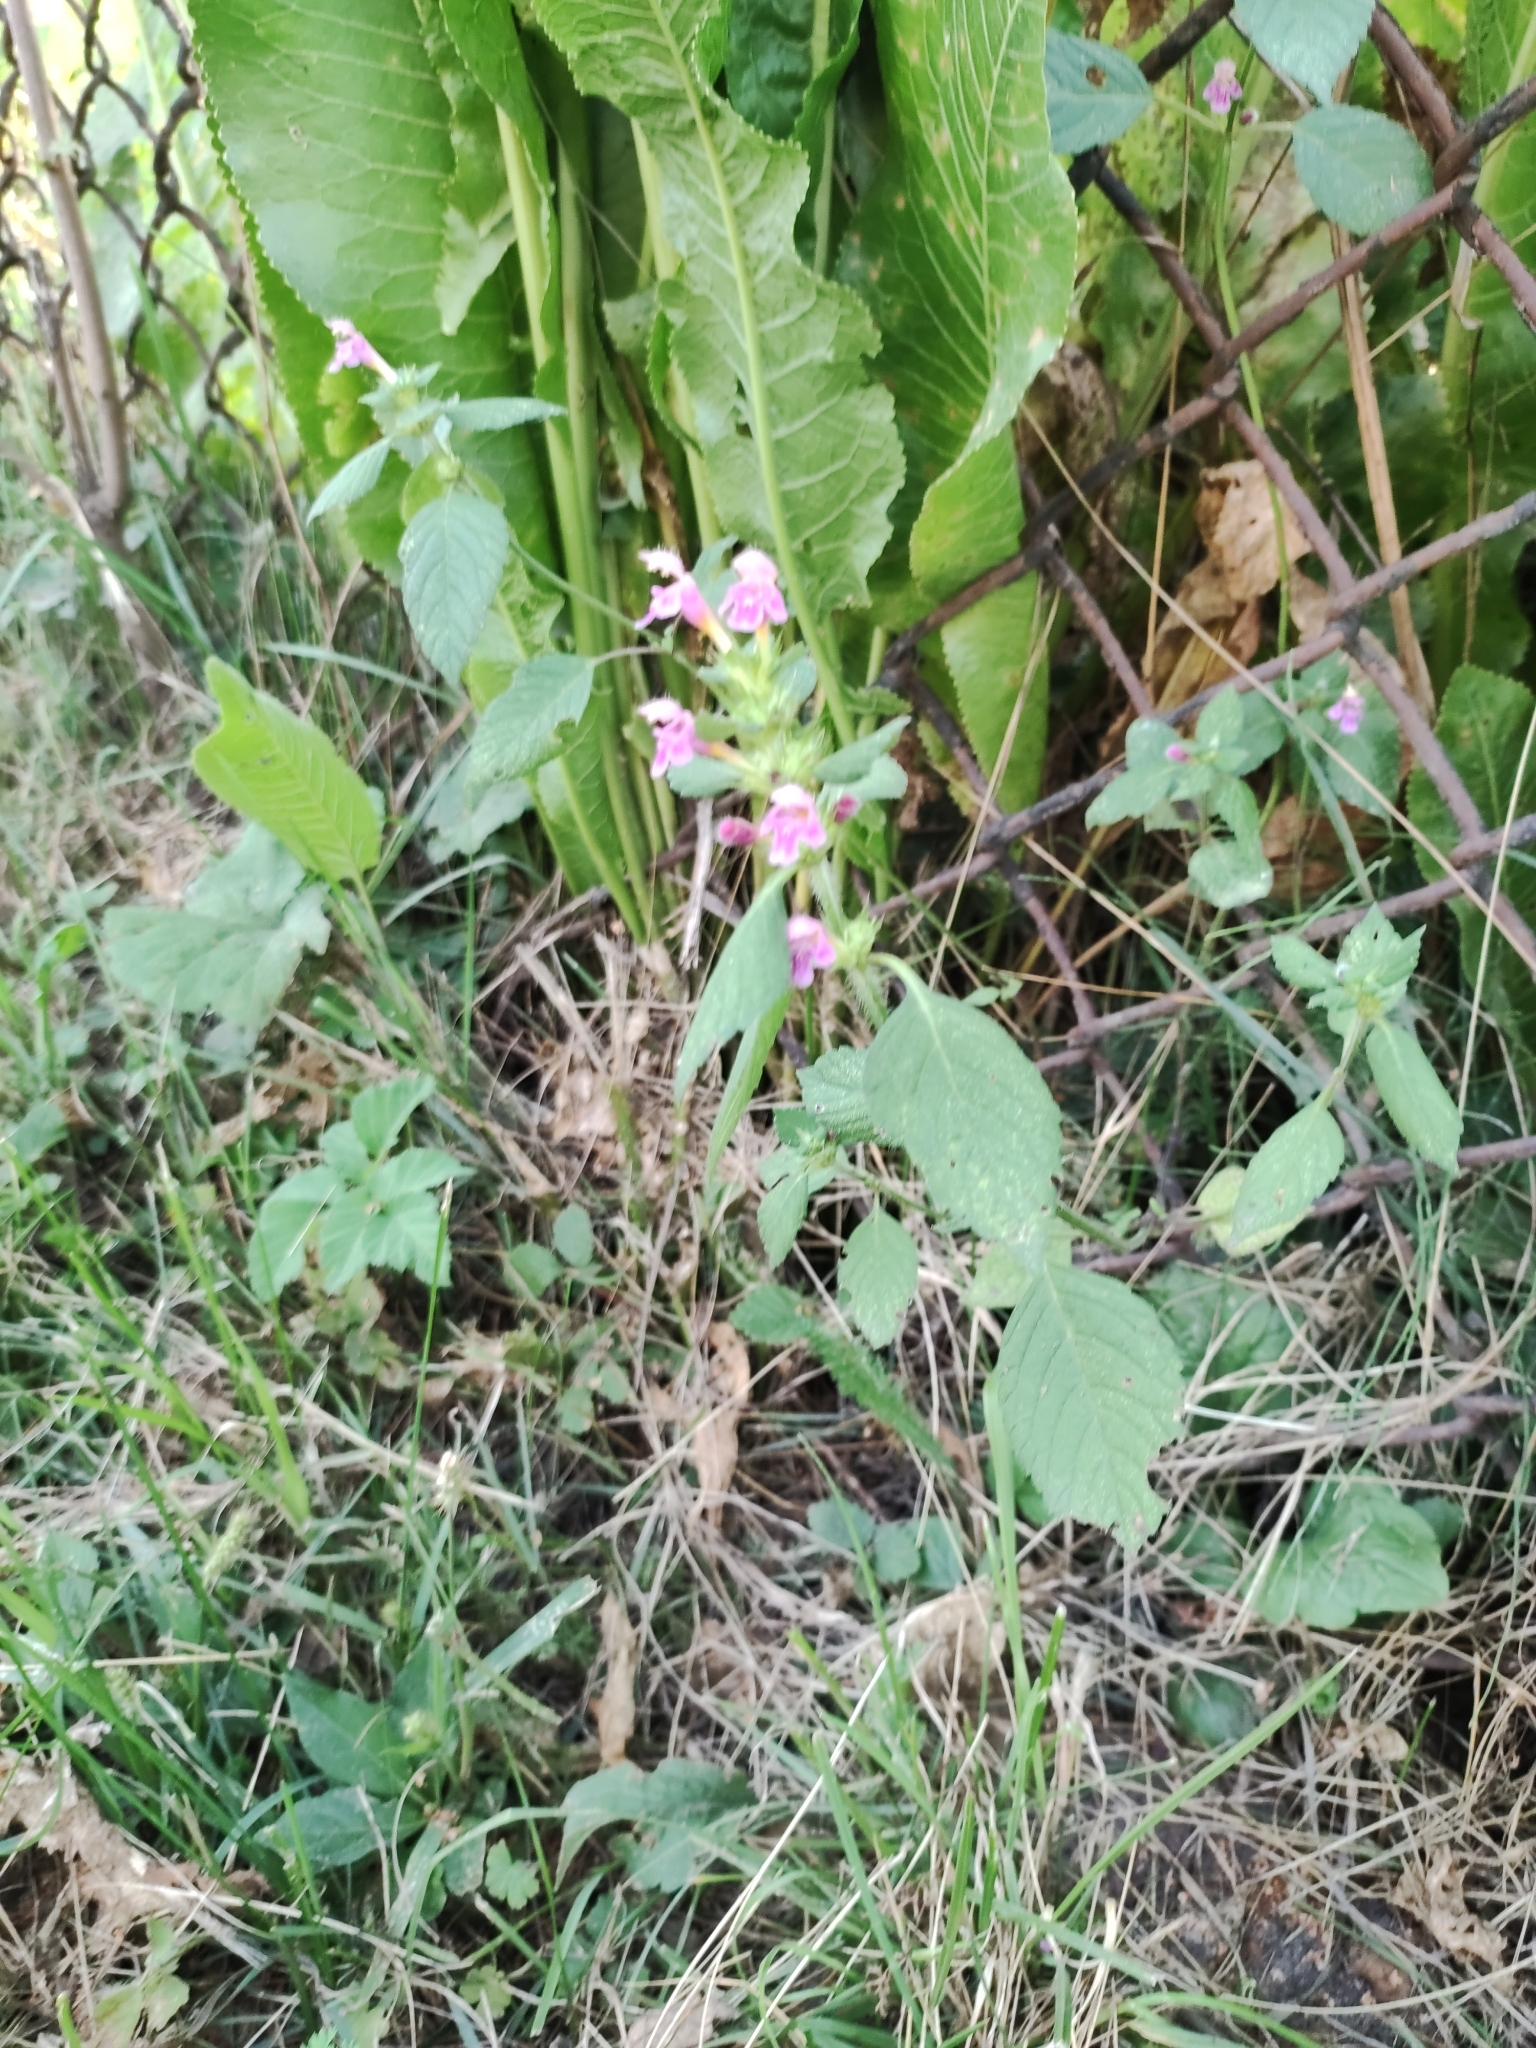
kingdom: Plantae
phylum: Tracheophyta
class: Magnoliopsida
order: Lamiales
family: Lamiaceae
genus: Galeopsis
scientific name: Galeopsis pubescens
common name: Downy hemp-nettle
